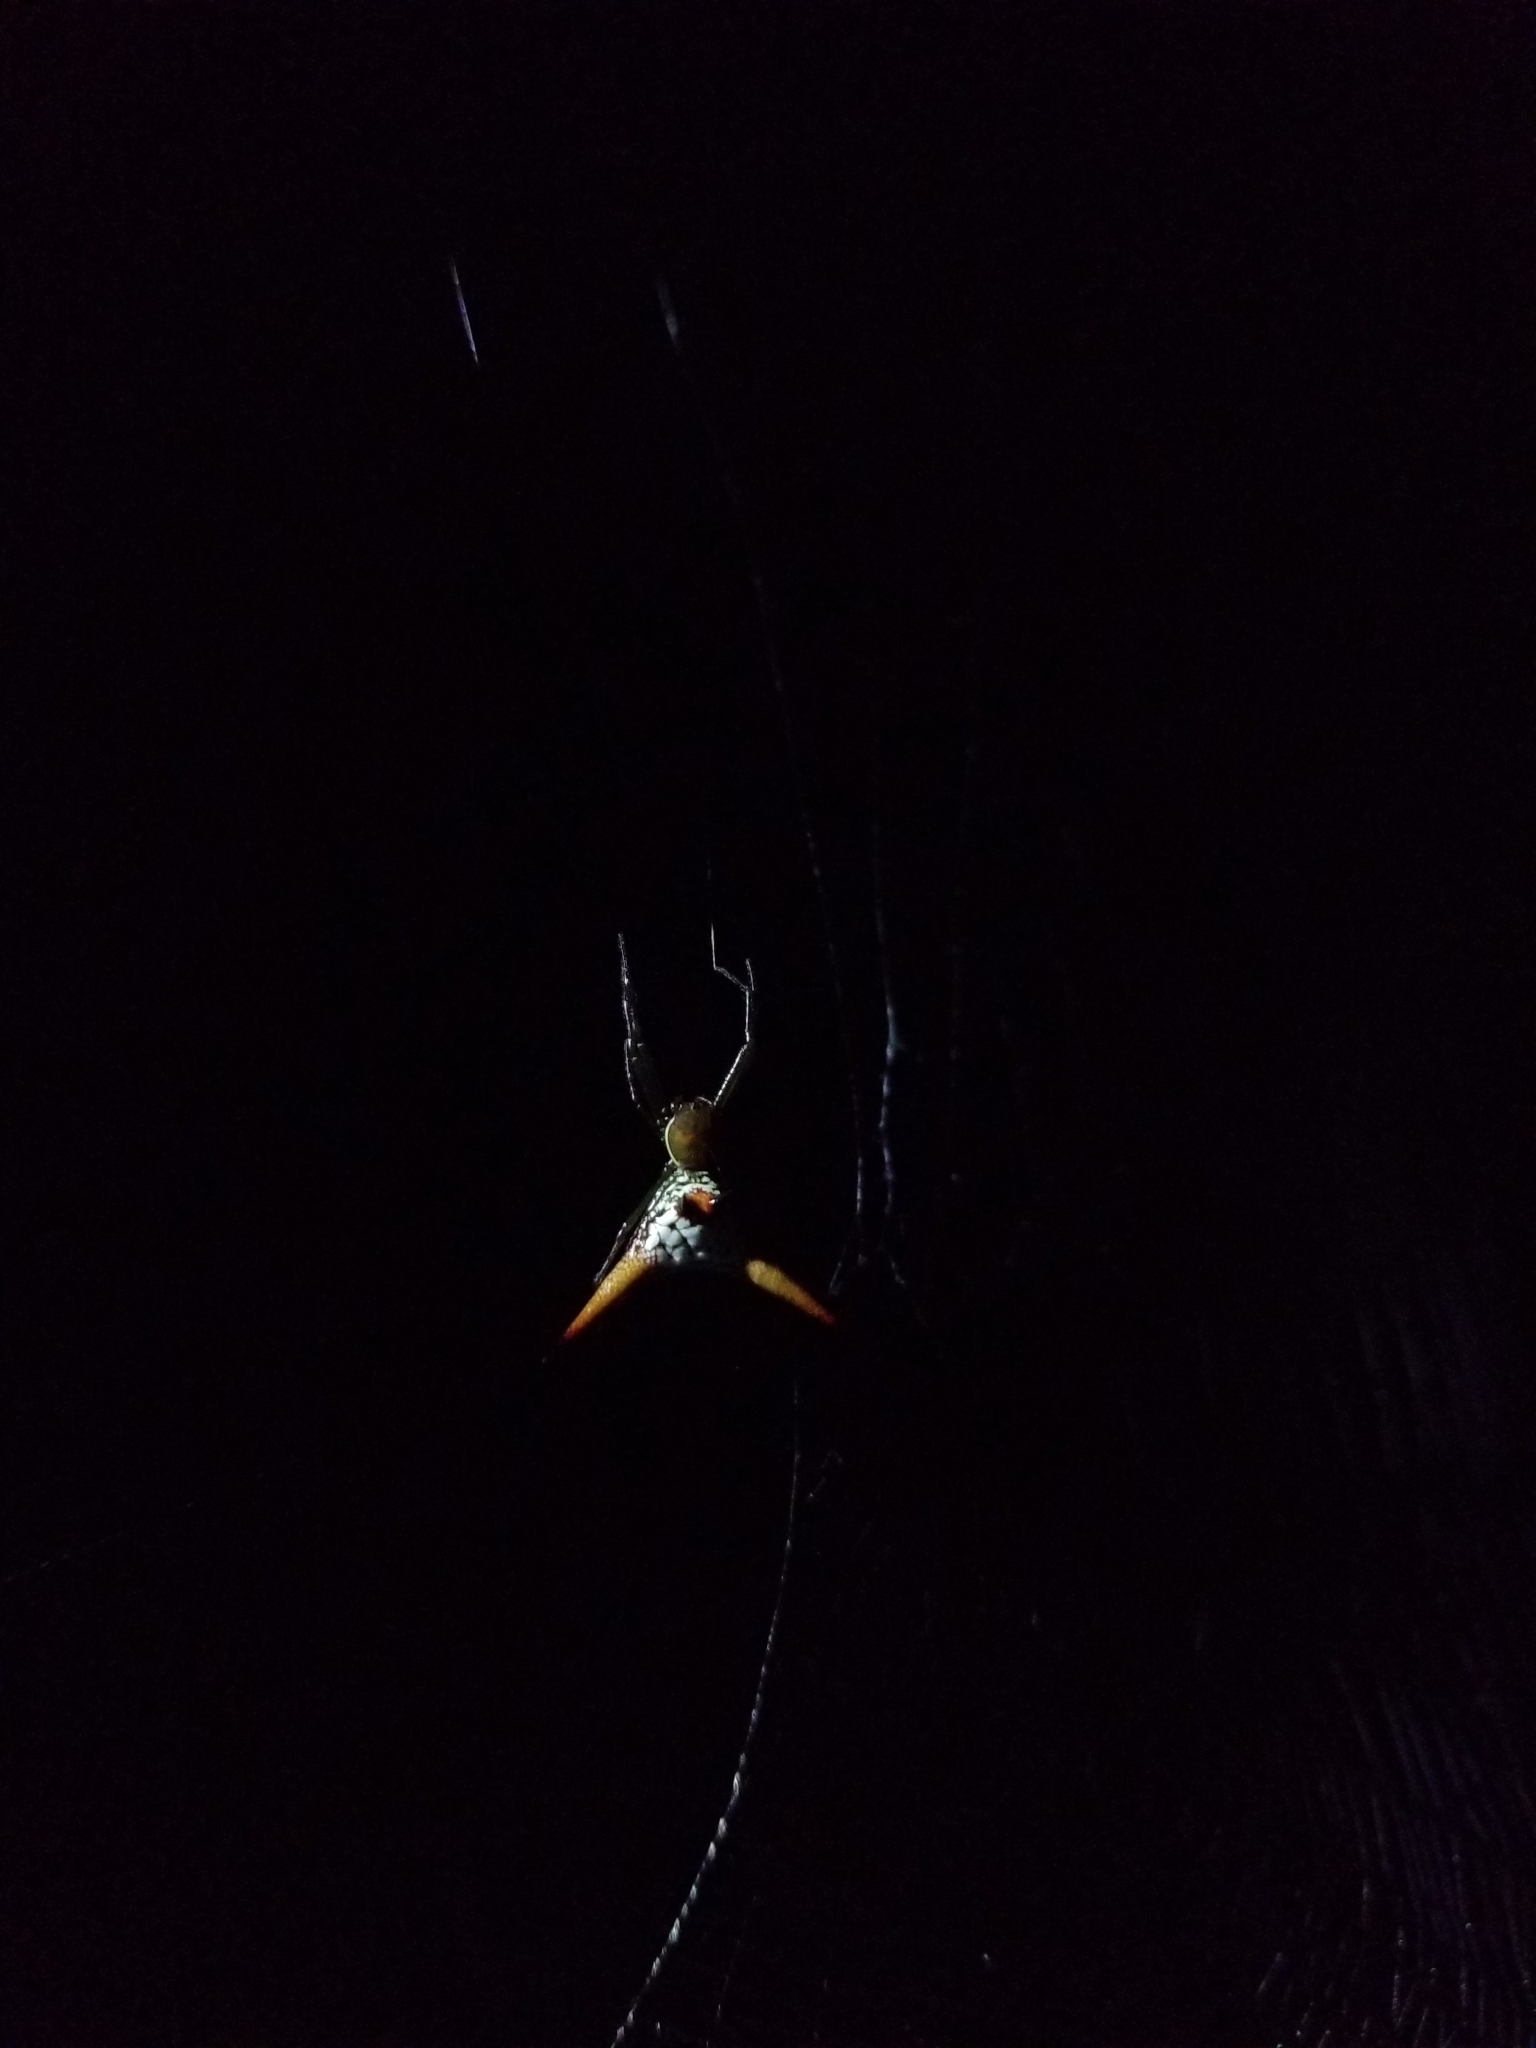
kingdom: Animalia
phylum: Arthropoda
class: Arachnida
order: Araneae
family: Araneidae
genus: Micrathena
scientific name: Micrathena militaris
